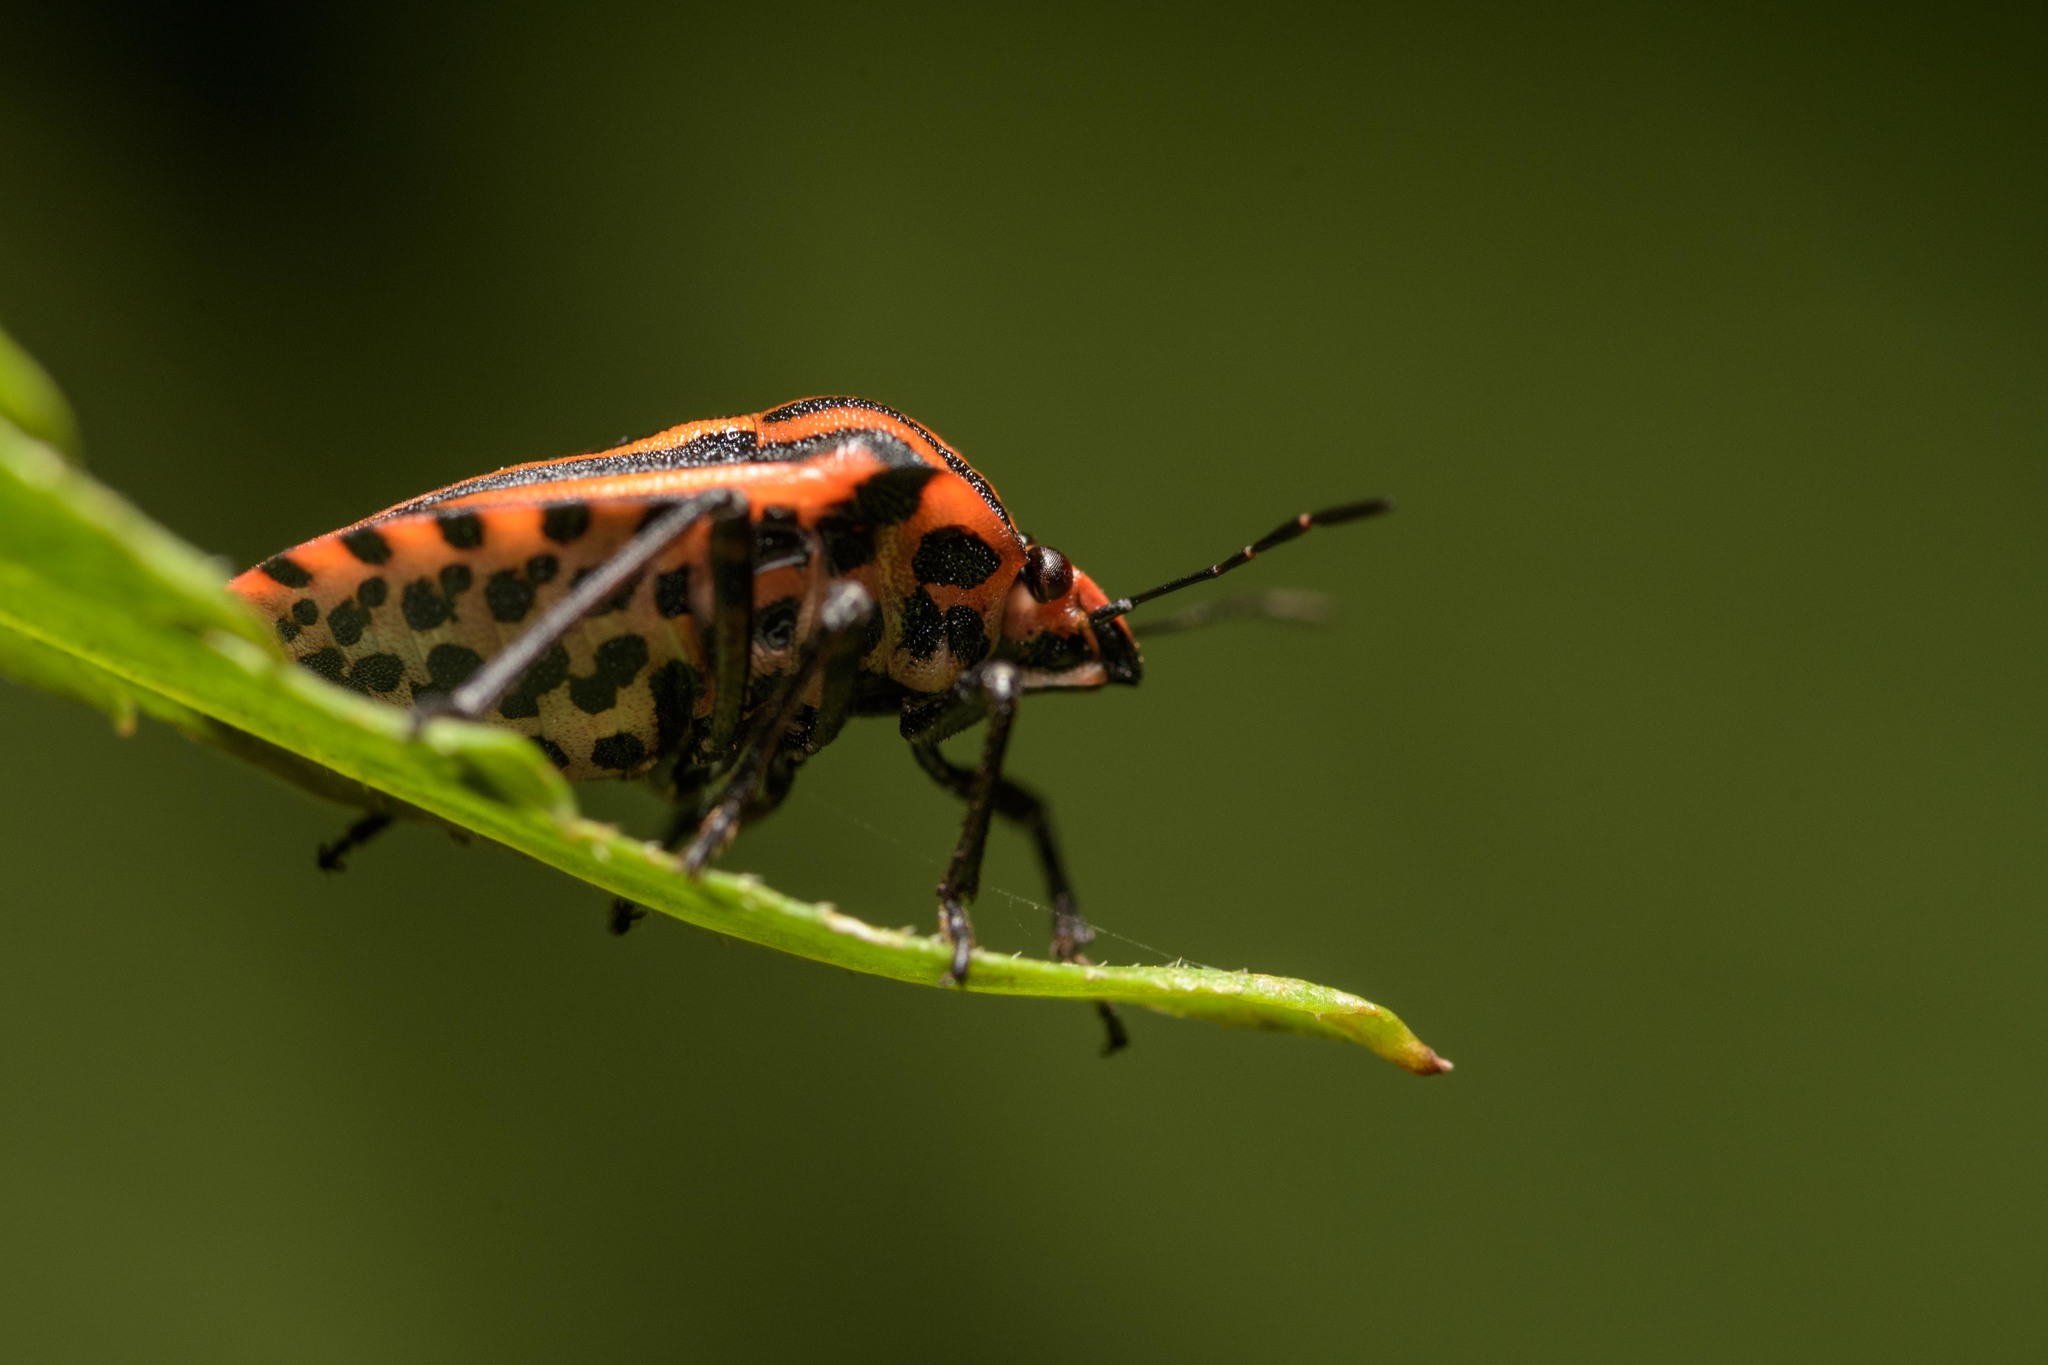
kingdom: Animalia
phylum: Arthropoda
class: Insecta
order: Hemiptera
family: Pentatomidae
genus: Graphosoma
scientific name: Graphosoma italicum
